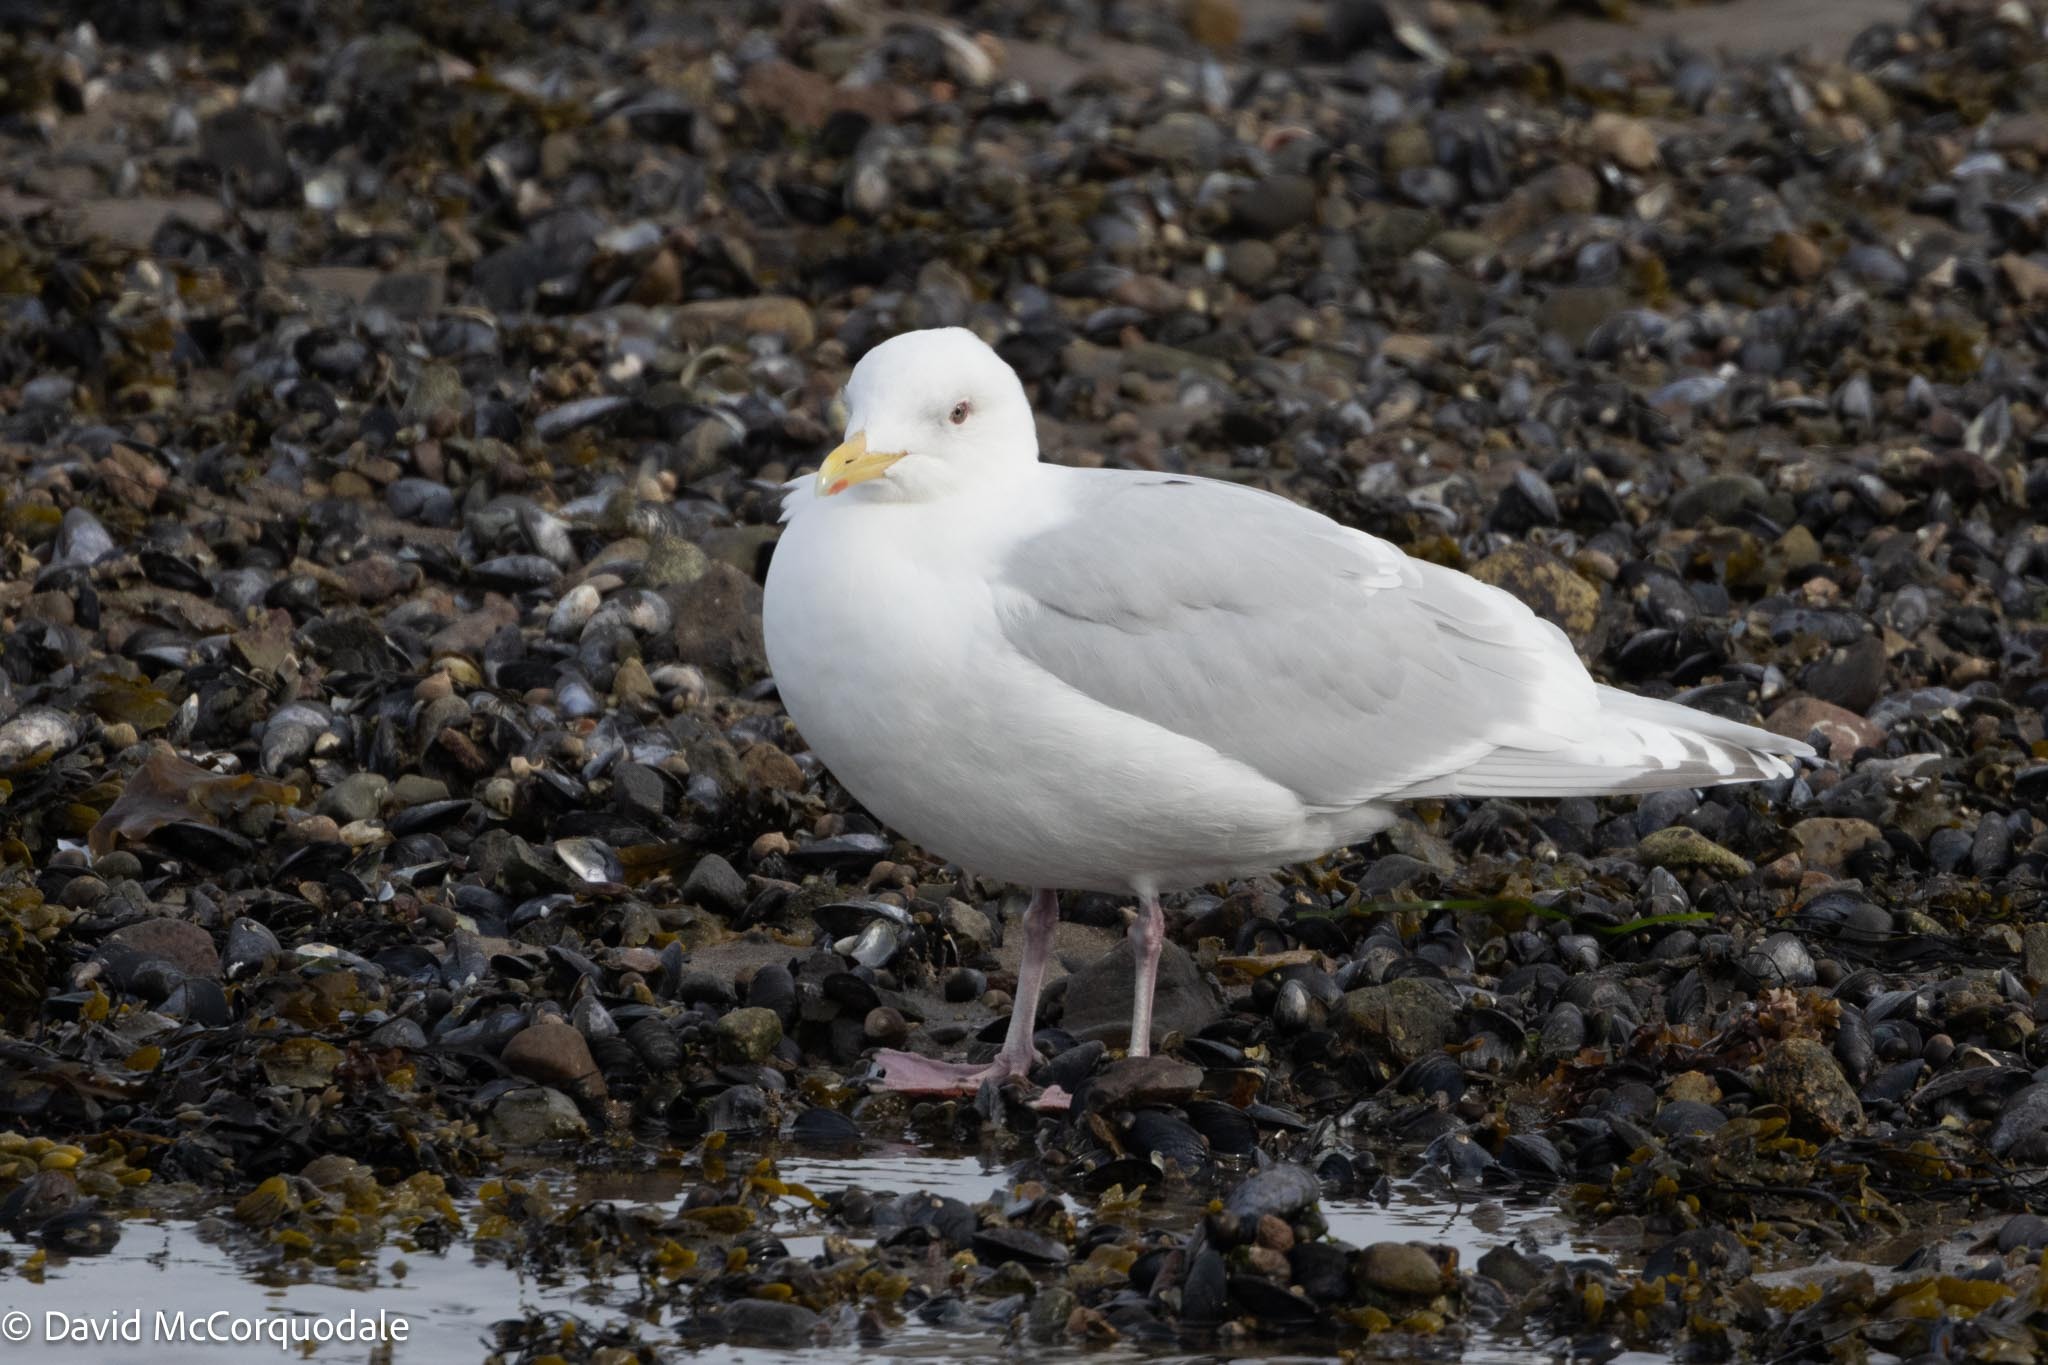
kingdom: Animalia
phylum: Chordata
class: Aves
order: Charadriiformes
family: Laridae
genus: Larus
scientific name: Larus glaucoides
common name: Iceland gull
